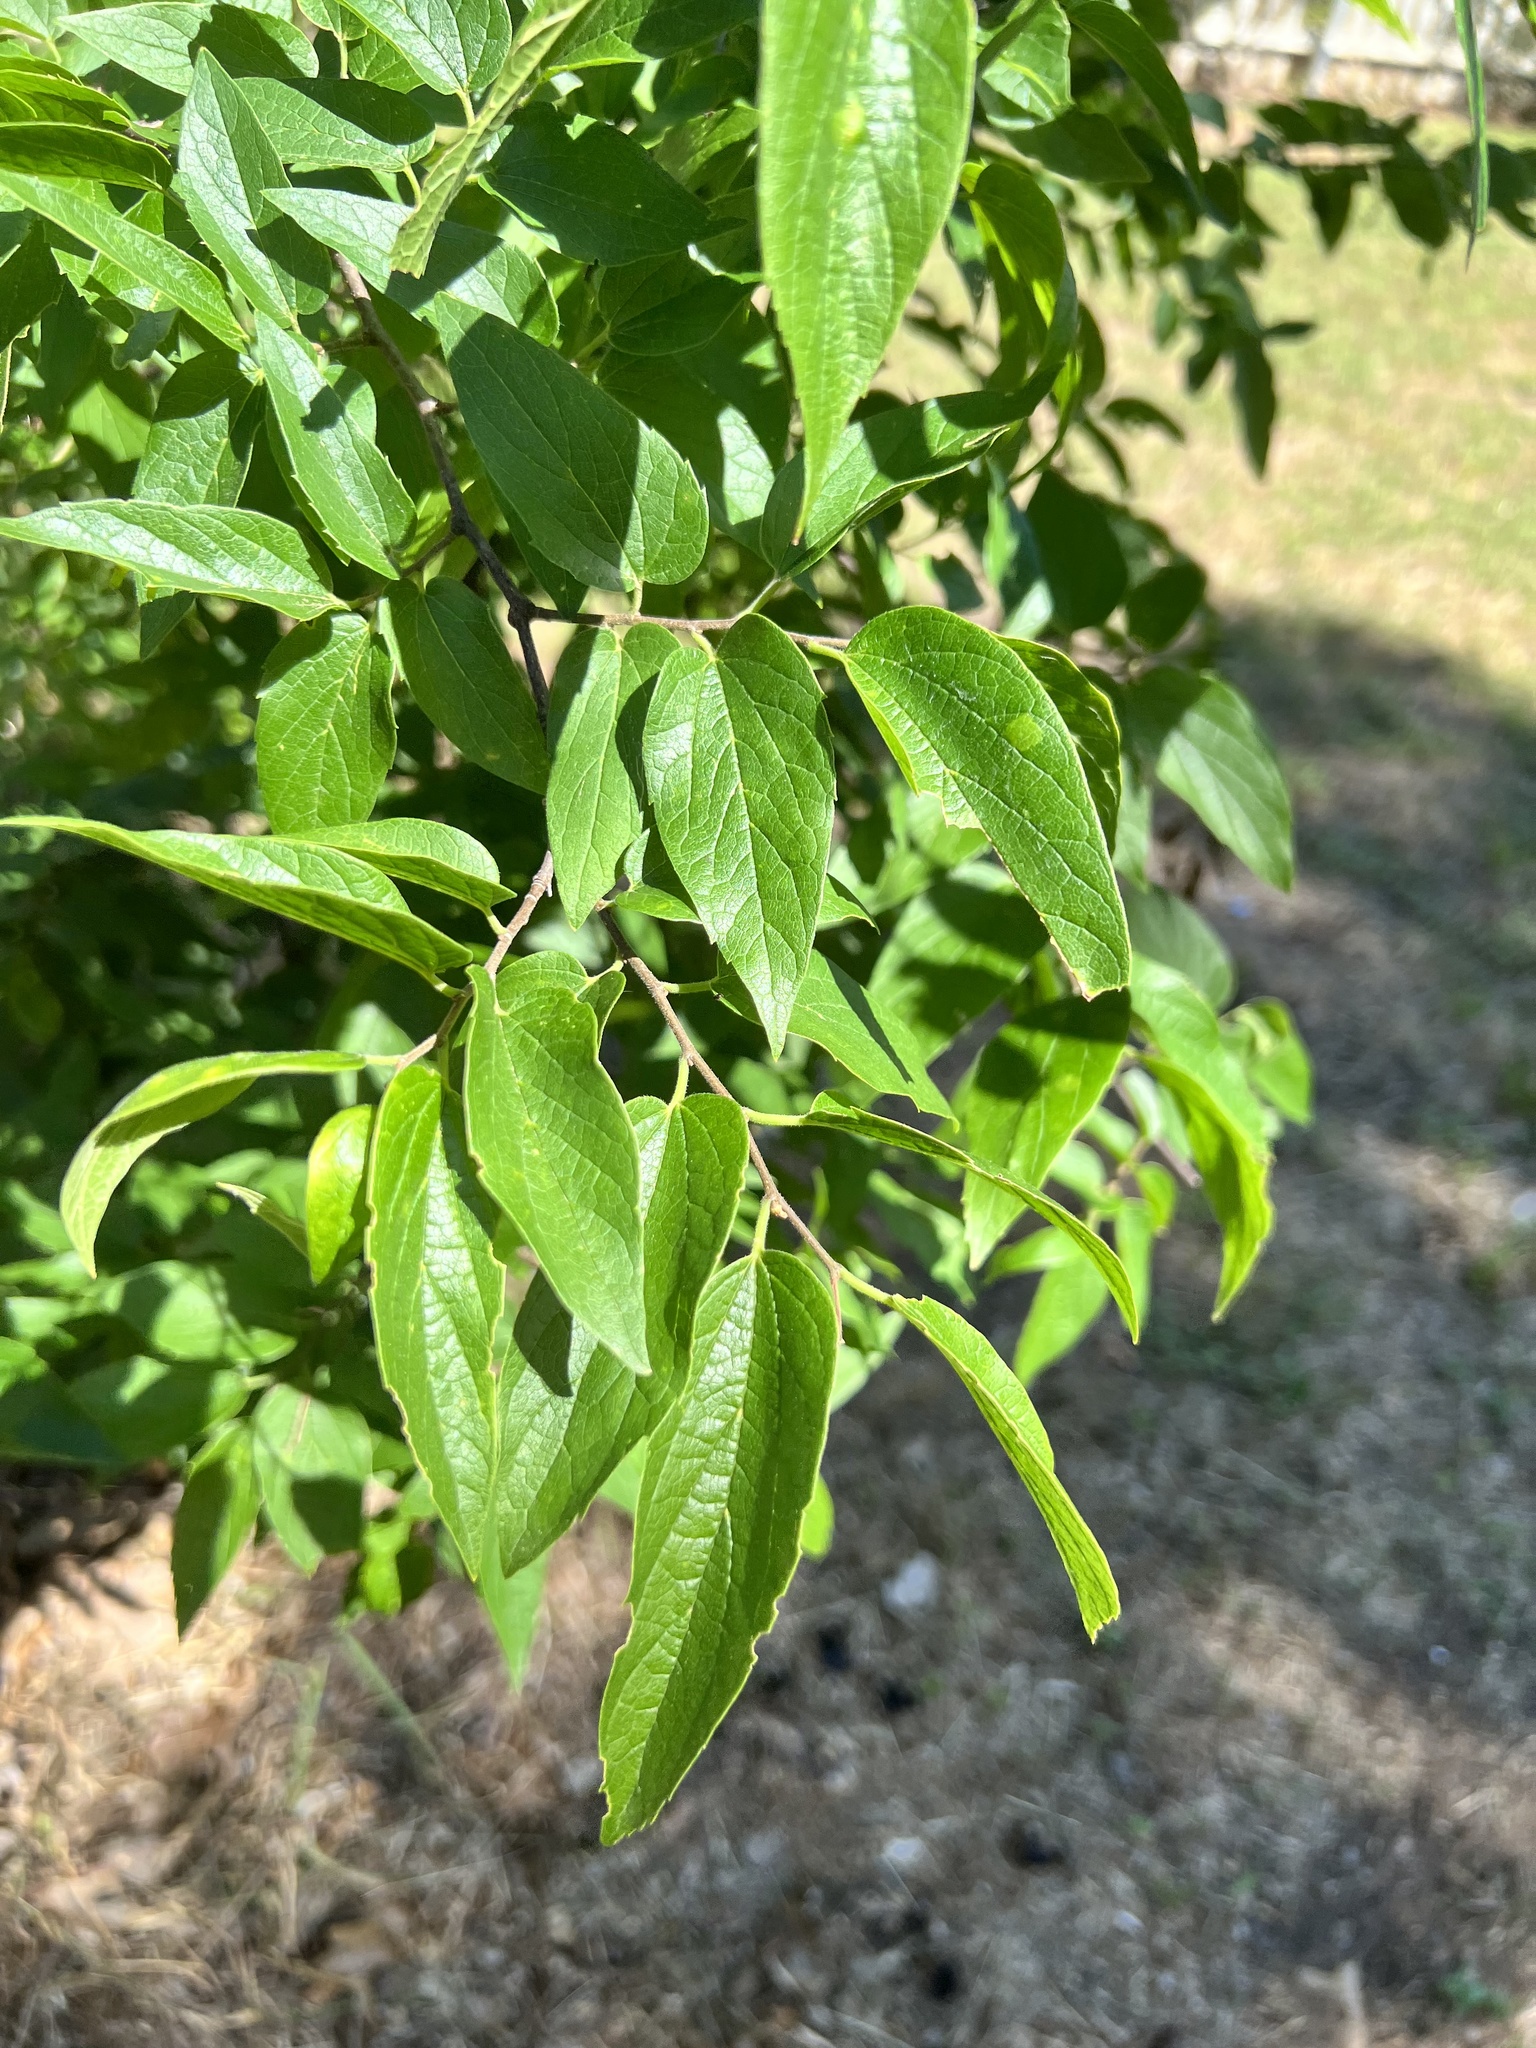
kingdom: Plantae
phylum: Tracheophyta
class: Magnoliopsida
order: Rosales
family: Cannabaceae
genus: Celtis
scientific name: Celtis laevigata
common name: Sugarberry
